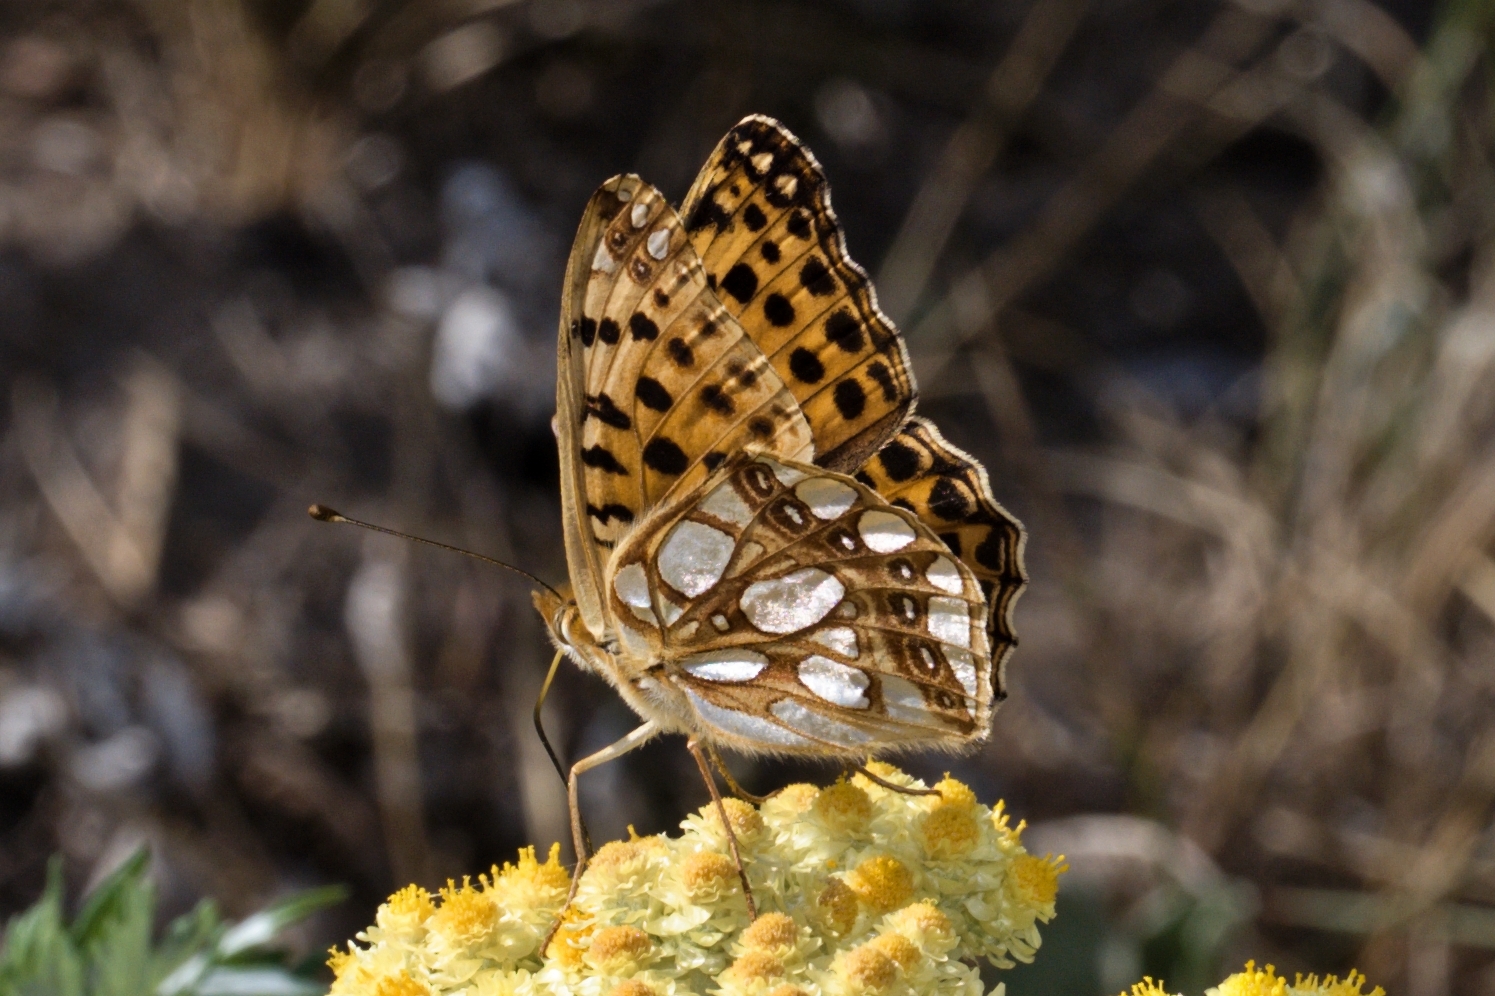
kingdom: Animalia
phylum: Arthropoda
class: Insecta
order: Lepidoptera
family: Nymphalidae
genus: Issoria
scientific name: Issoria lathonia
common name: Queen of spain fritillary
